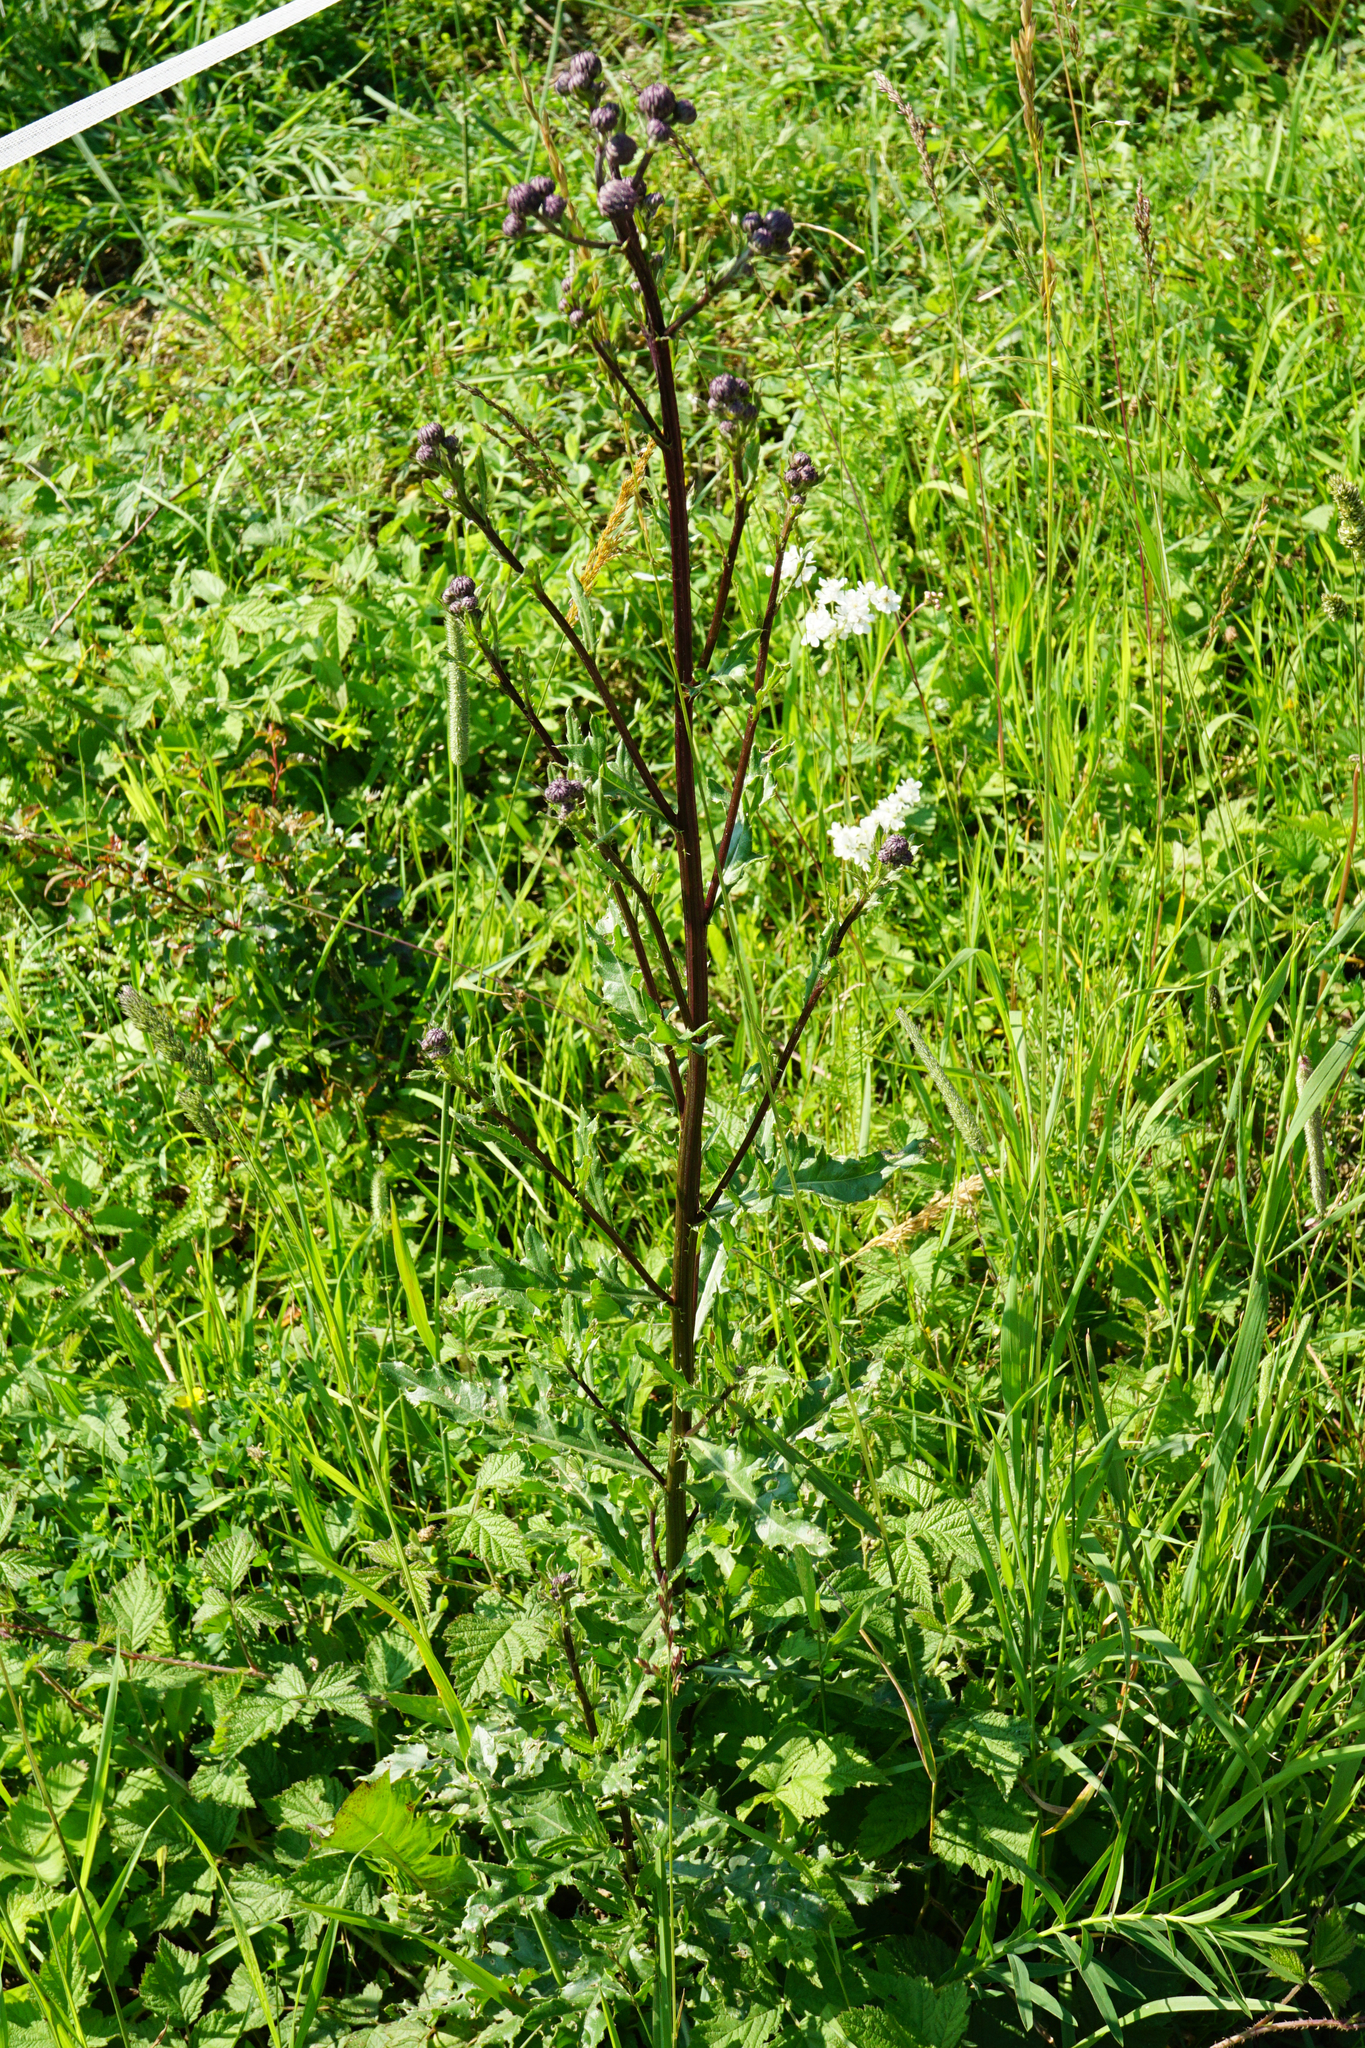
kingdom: Plantae
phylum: Tracheophyta
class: Magnoliopsida
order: Asterales
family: Asteraceae
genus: Cirsium
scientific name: Cirsium arvense
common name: Creeping thistle
